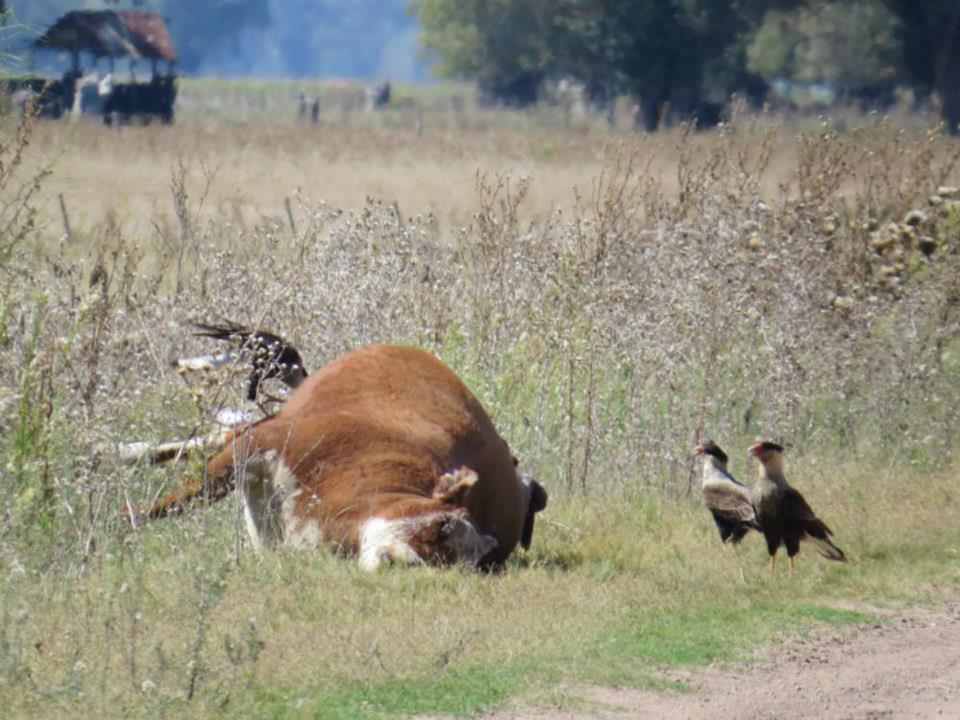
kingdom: Animalia
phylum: Chordata
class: Aves
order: Falconiformes
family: Falconidae
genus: Caracara
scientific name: Caracara plancus
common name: Southern caracara
